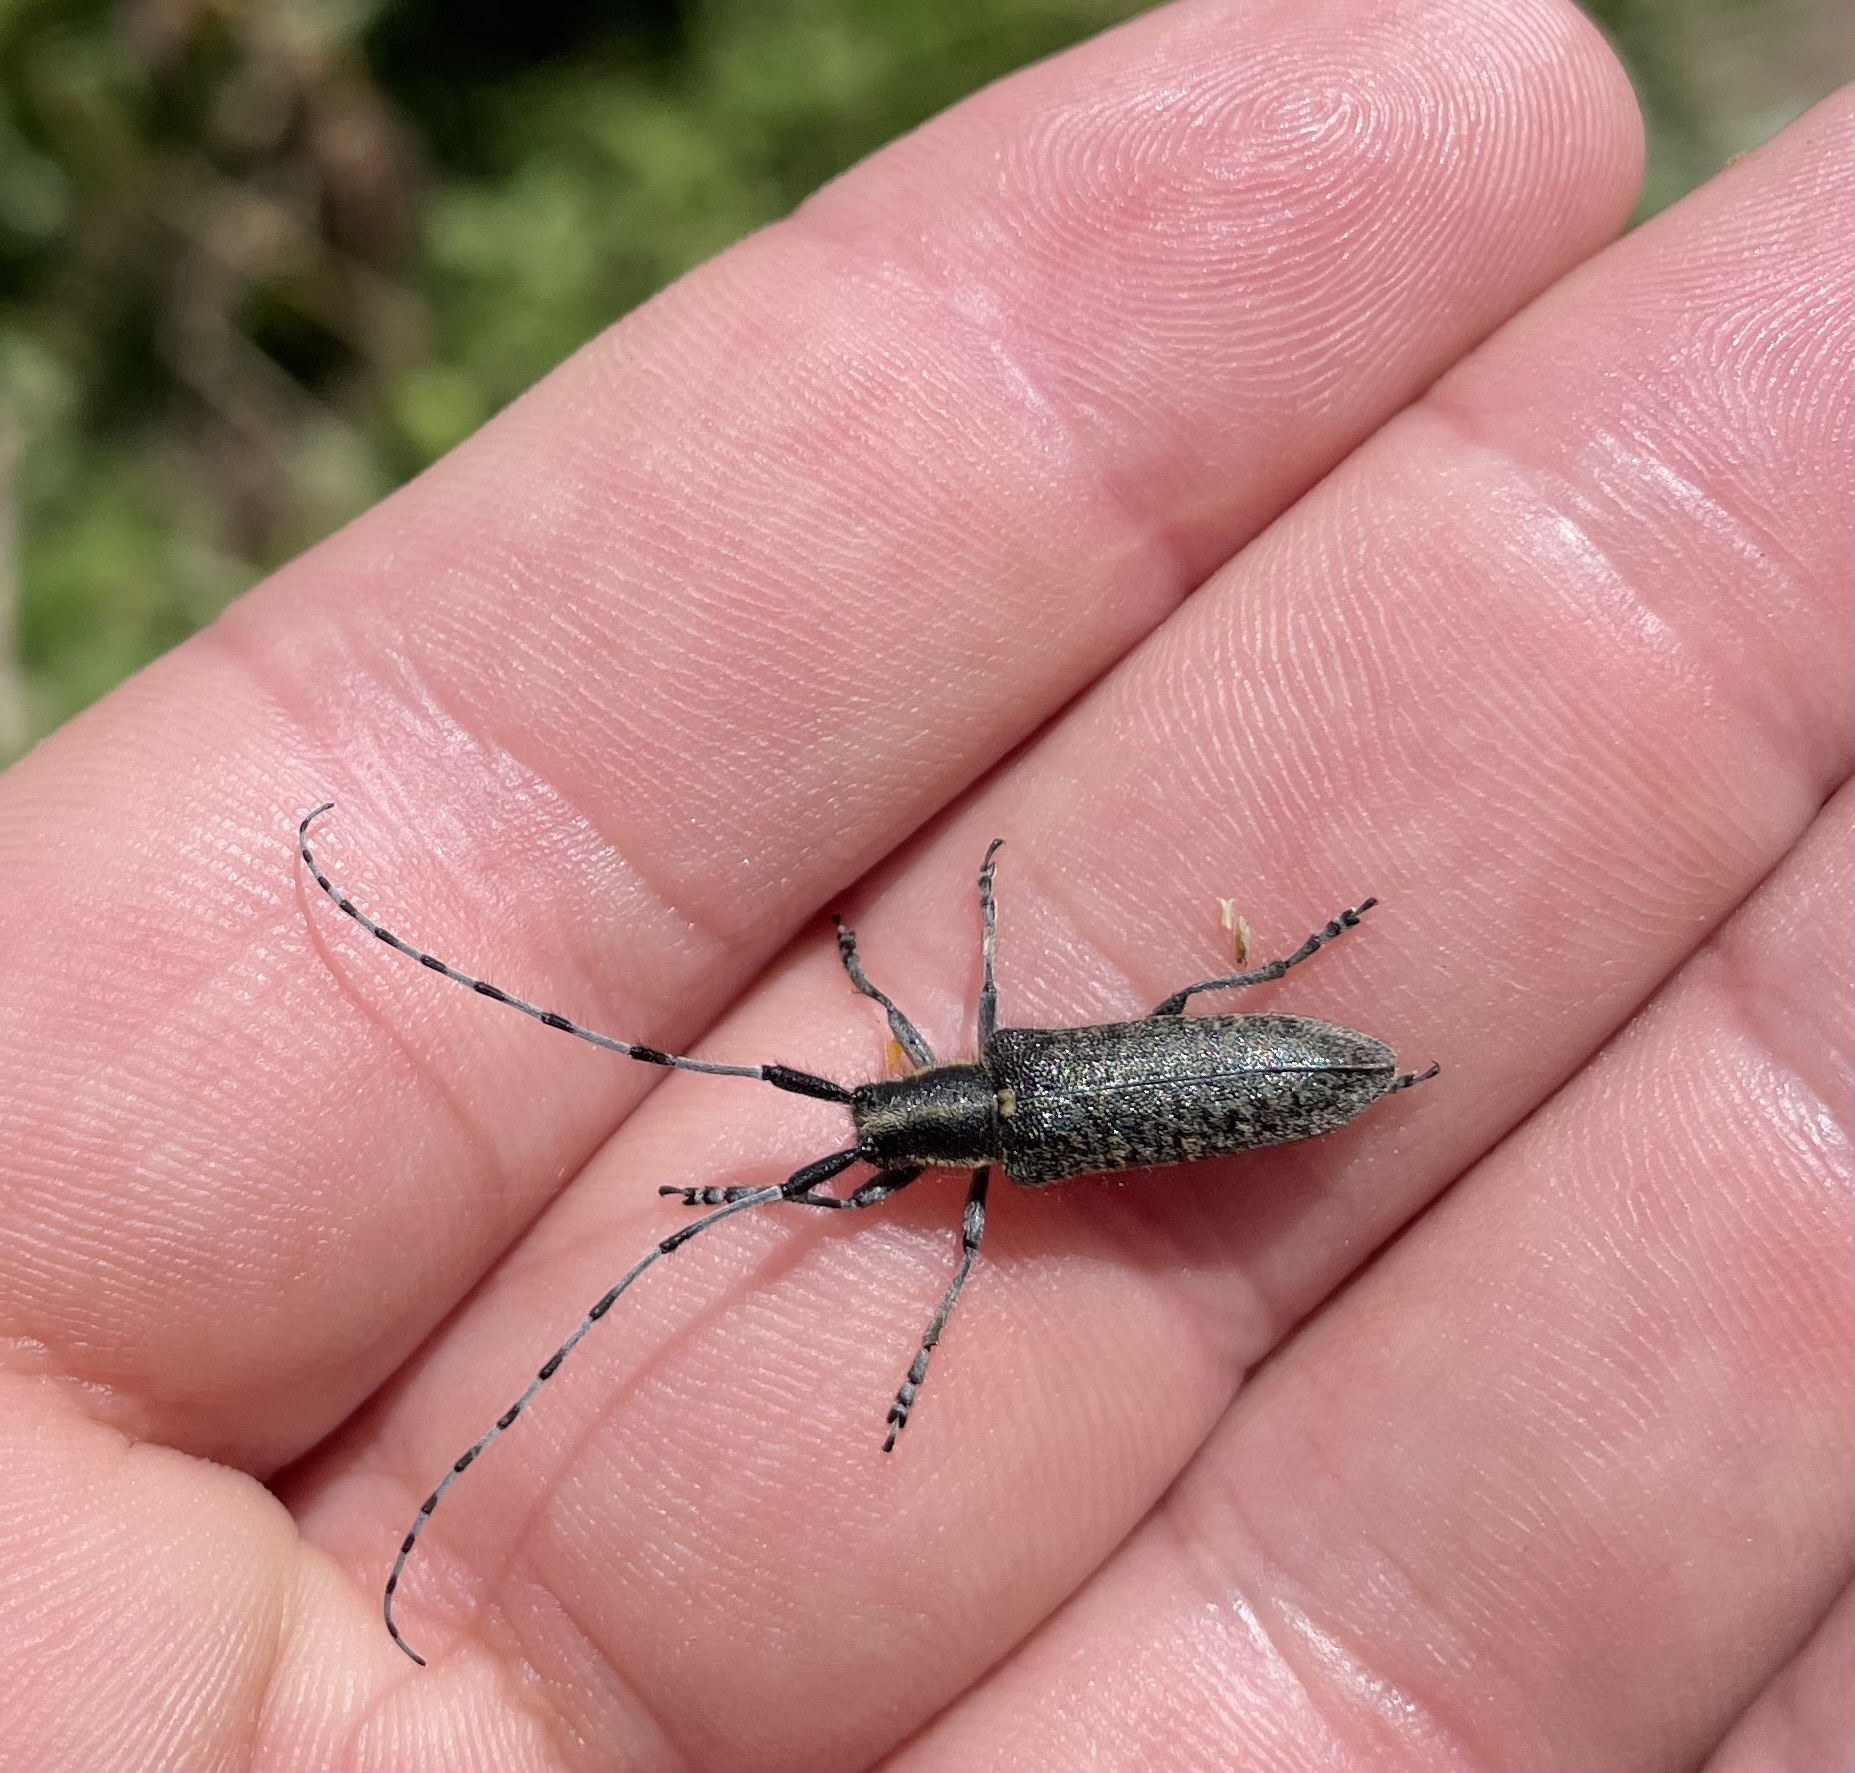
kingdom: Animalia
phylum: Arthropoda
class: Insecta
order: Coleoptera
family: Cerambycidae
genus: Agapanthia
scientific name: Agapanthia villosoviridescens
